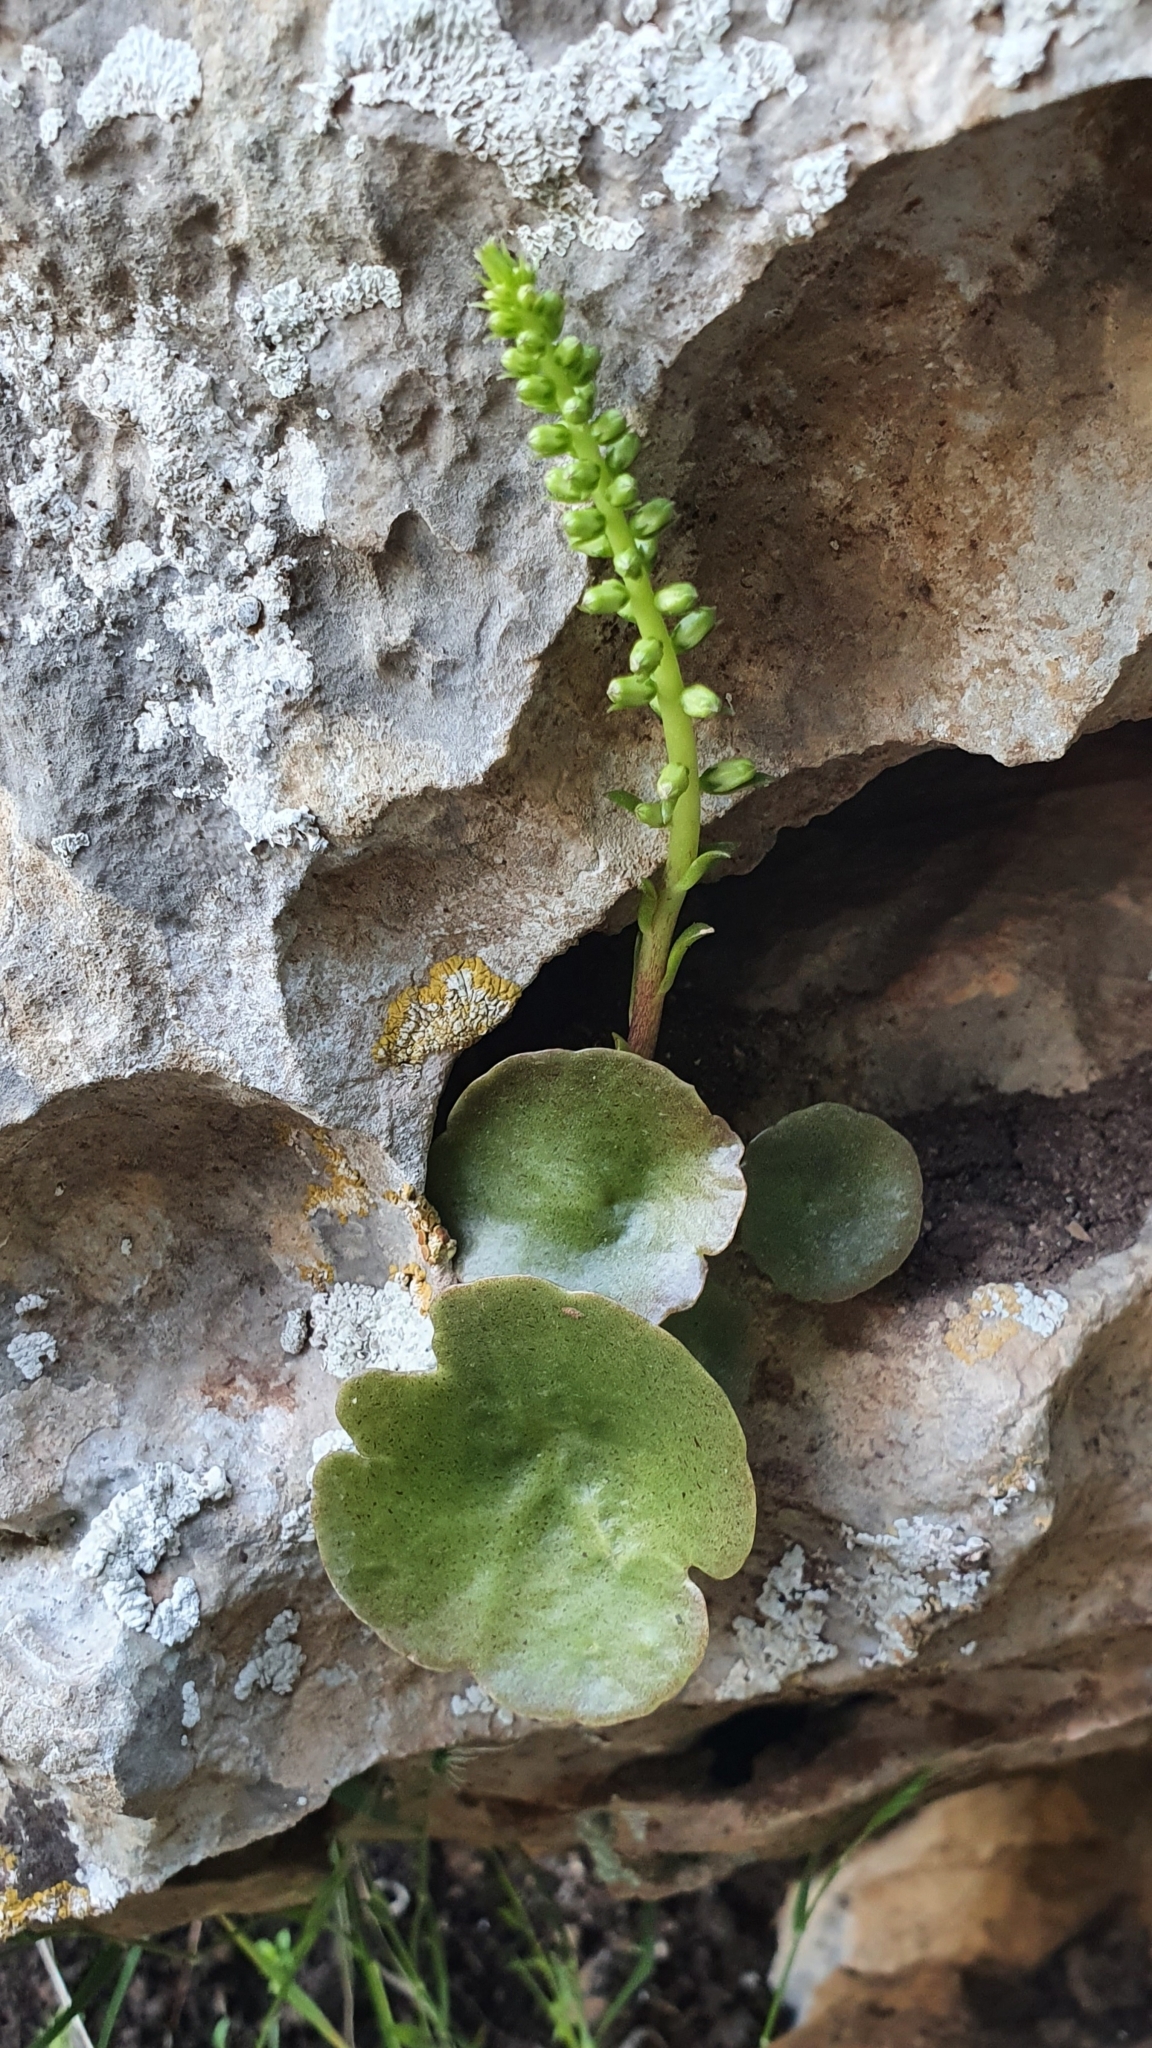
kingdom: Plantae
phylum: Tracheophyta
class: Magnoliopsida
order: Saxifragales
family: Crassulaceae
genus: Umbilicus
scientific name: Umbilicus horizontalis
